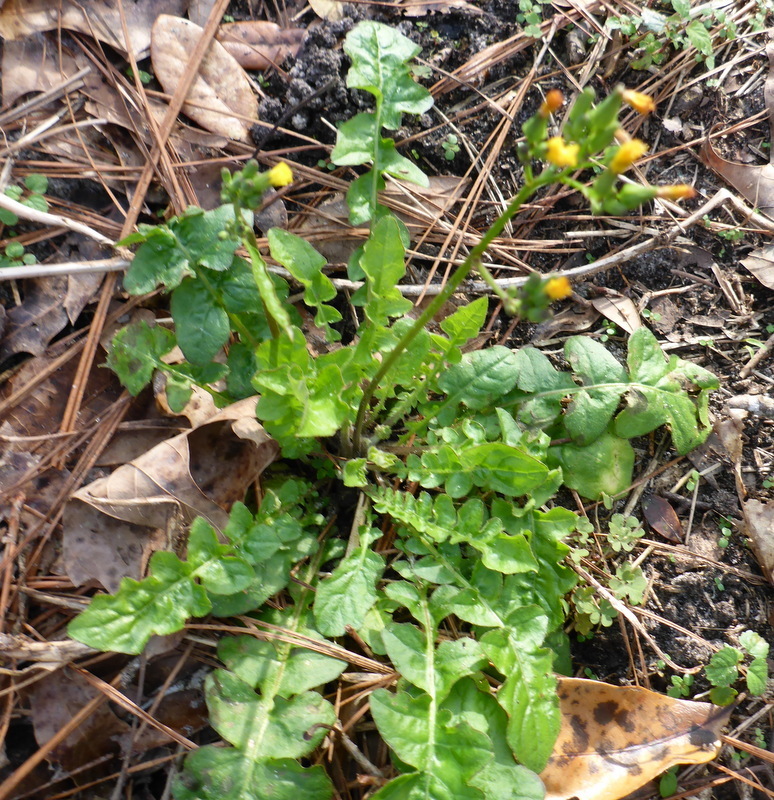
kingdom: Plantae
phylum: Tracheophyta
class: Magnoliopsida
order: Asterales
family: Asteraceae
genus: Youngia
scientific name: Youngia japonica
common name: Oriental false hawksbeard
